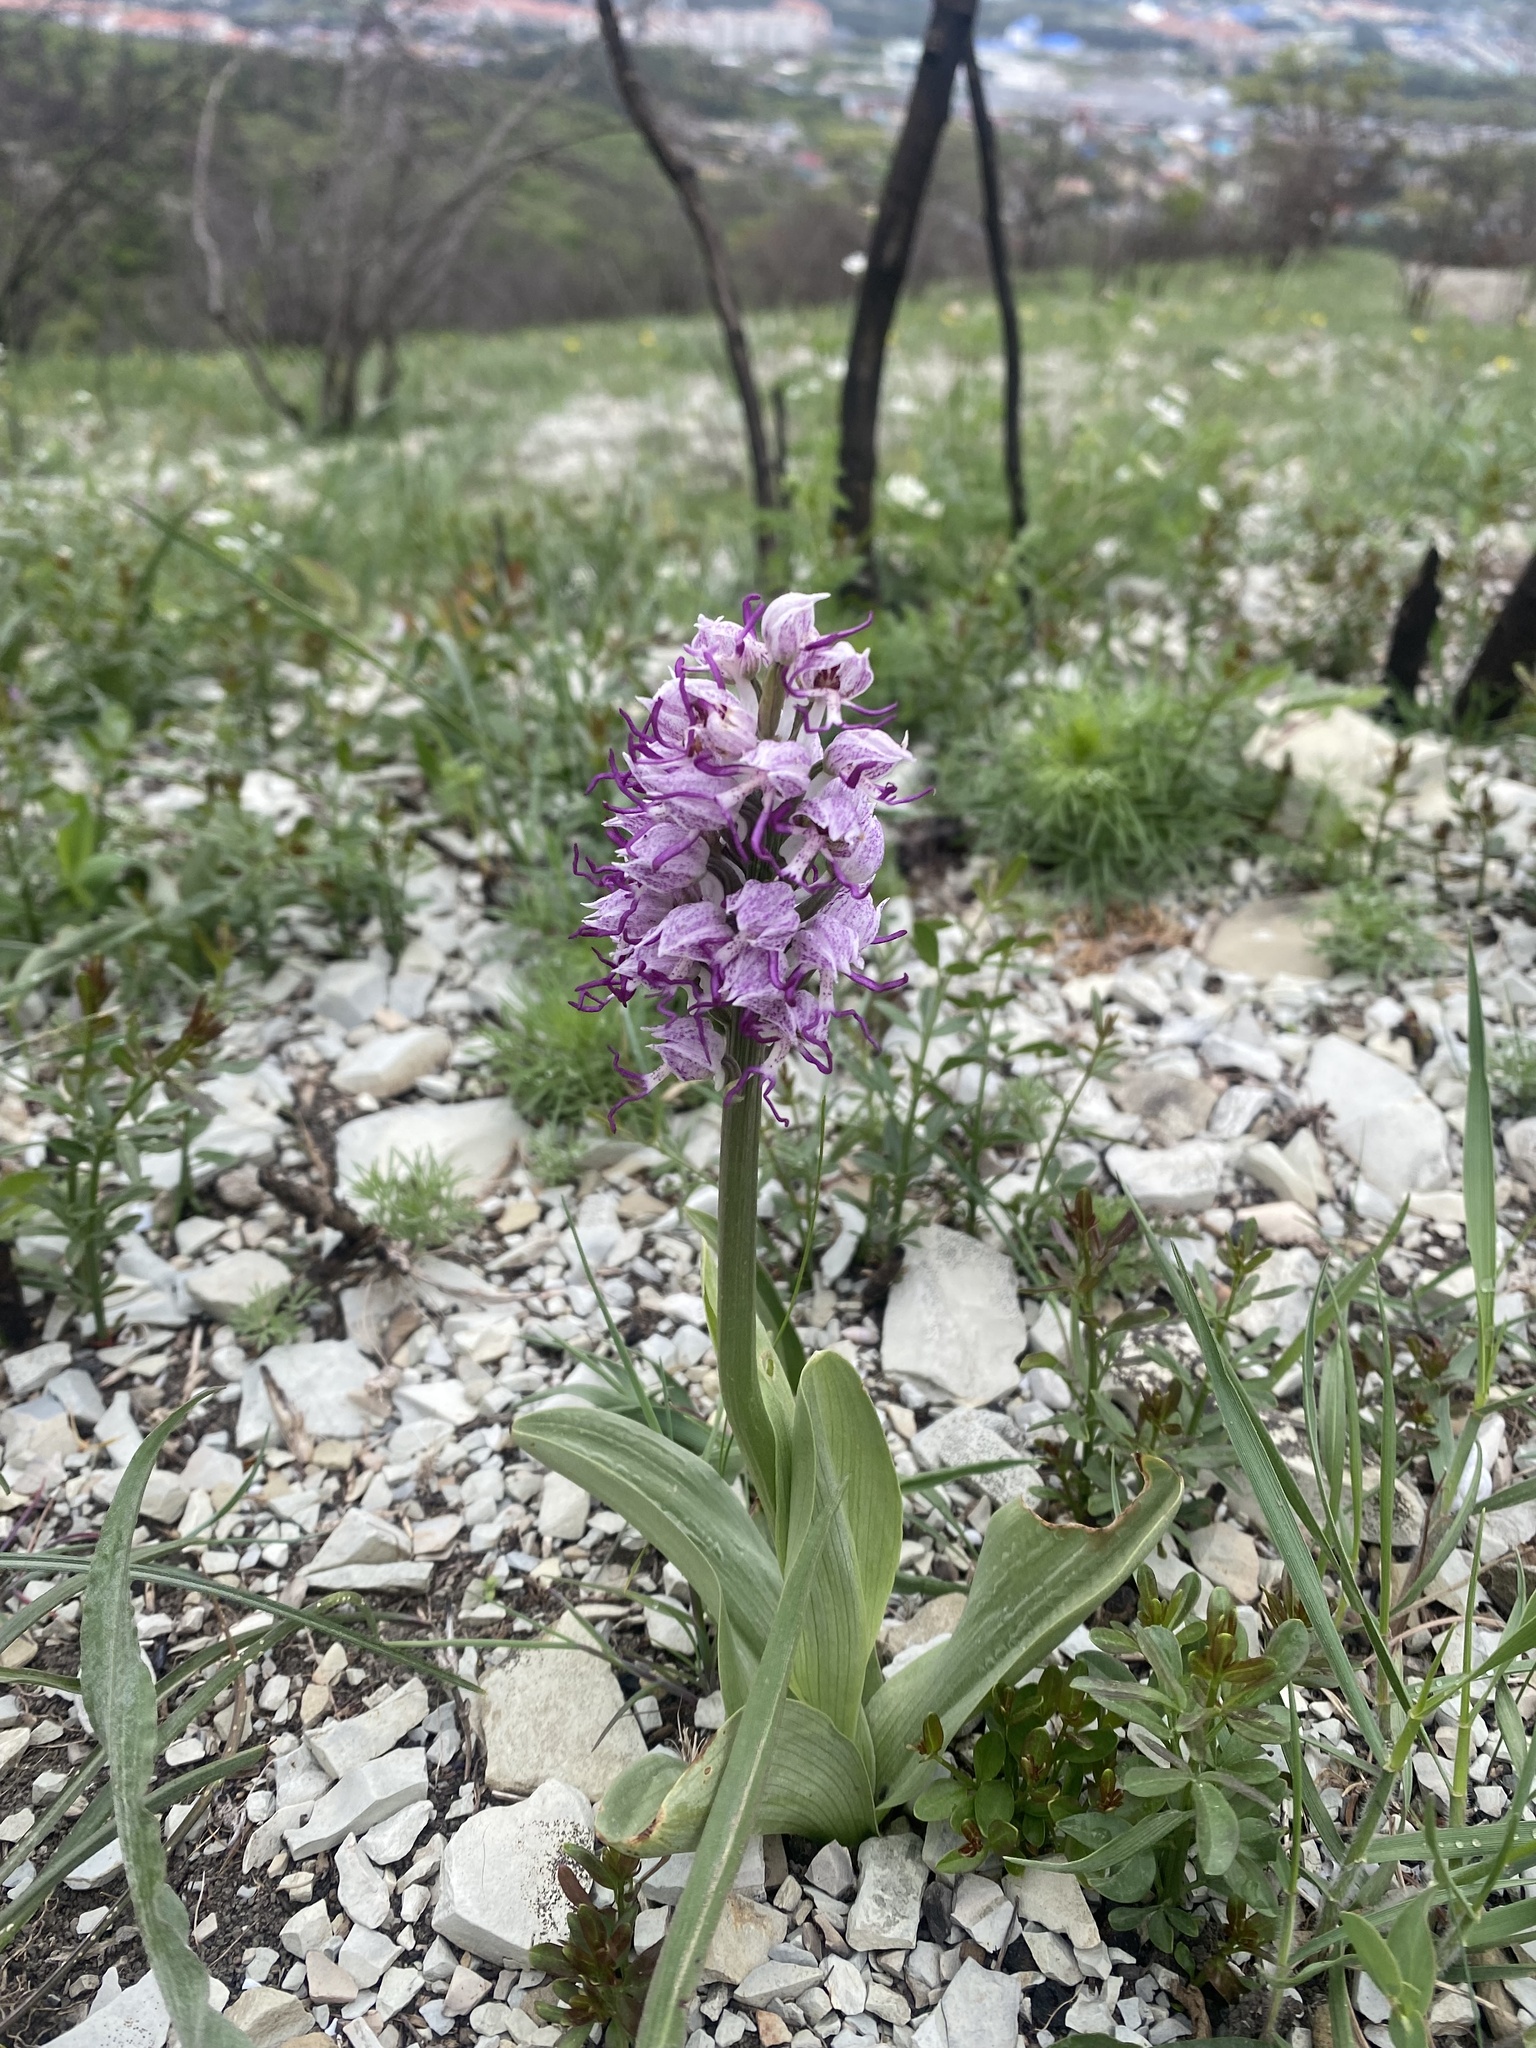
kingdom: Plantae
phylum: Tracheophyta
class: Liliopsida
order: Asparagales
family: Orchidaceae
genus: Orchis
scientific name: Orchis simia
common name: Monkey orchid
